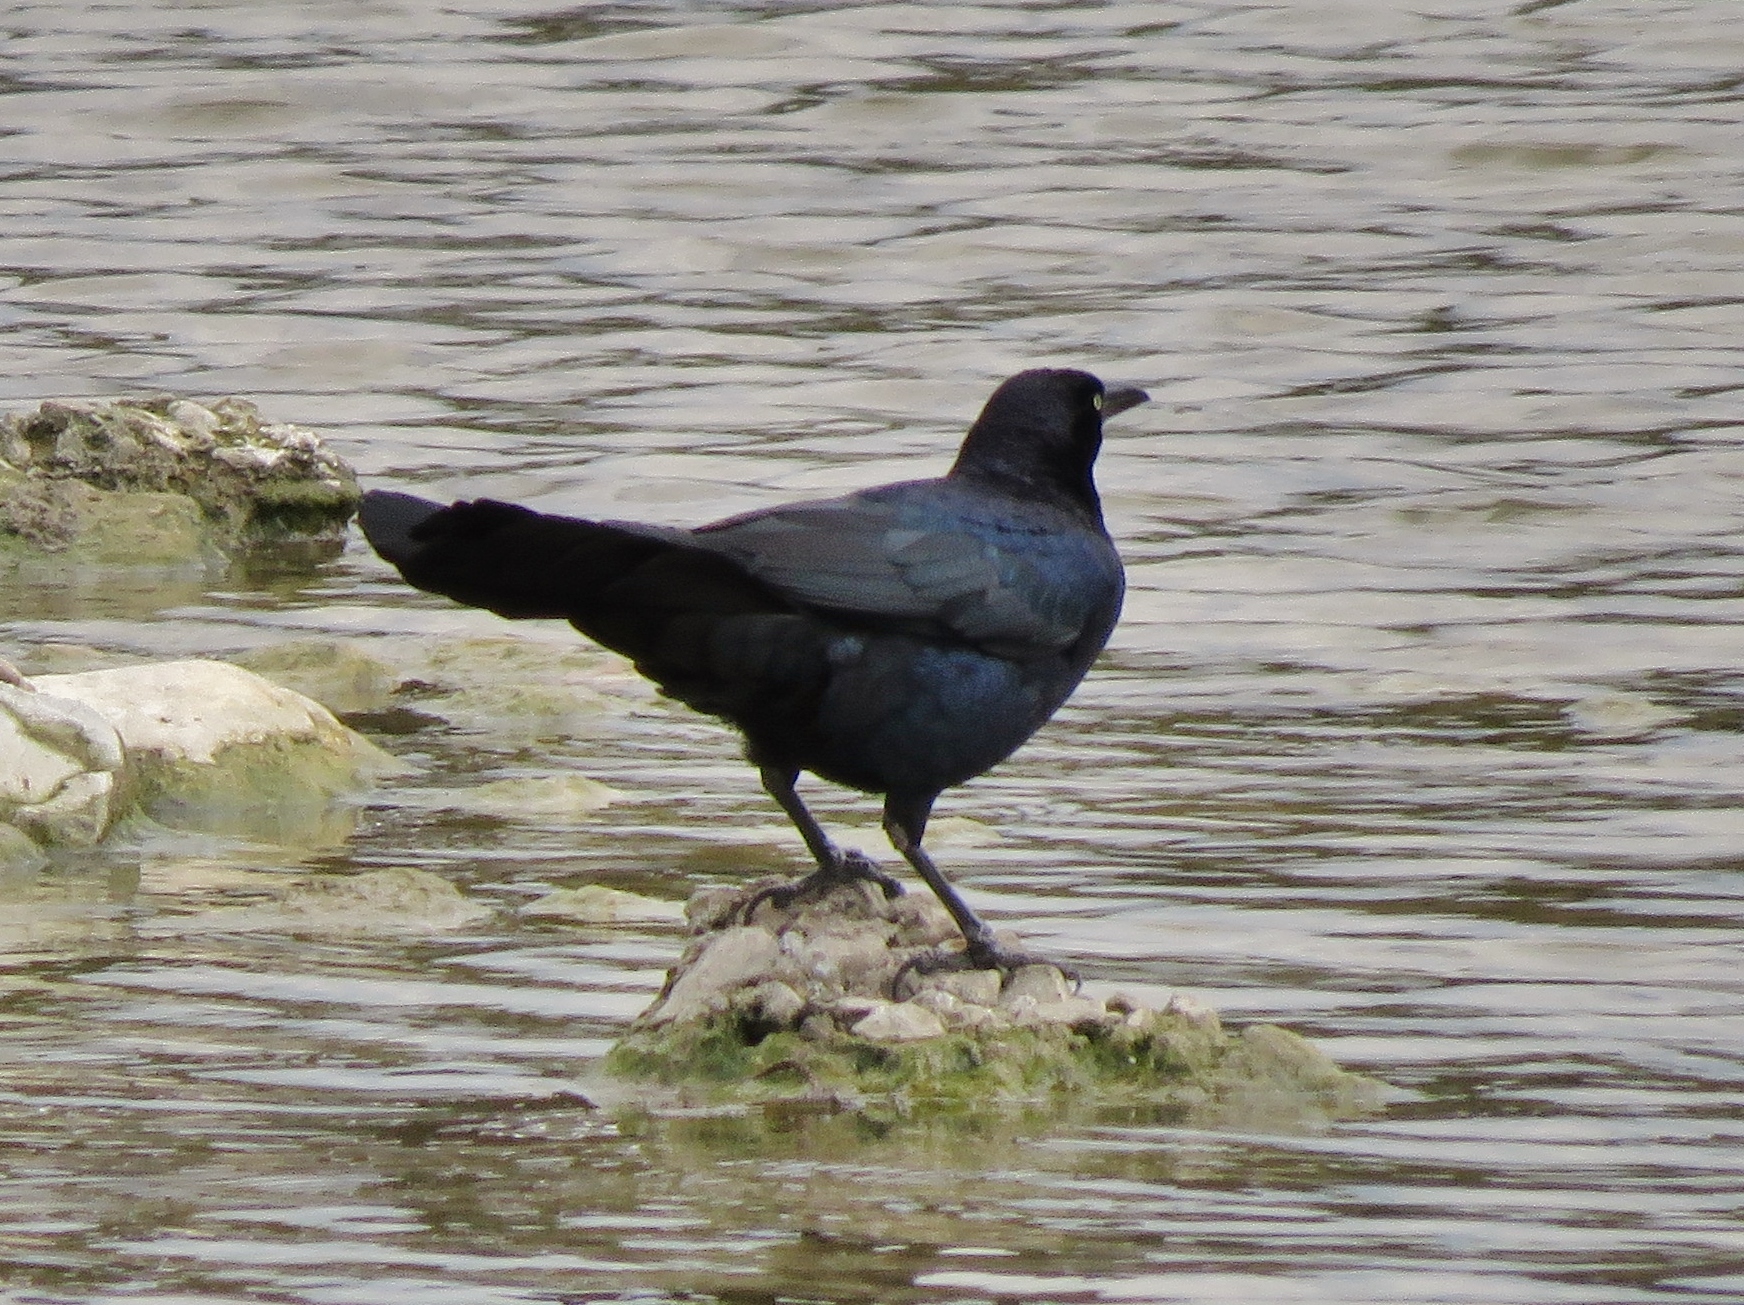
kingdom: Animalia
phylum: Chordata
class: Aves
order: Passeriformes
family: Icteridae
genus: Quiscalus
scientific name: Quiscalus mexicanus
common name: Great-tailed grackle
